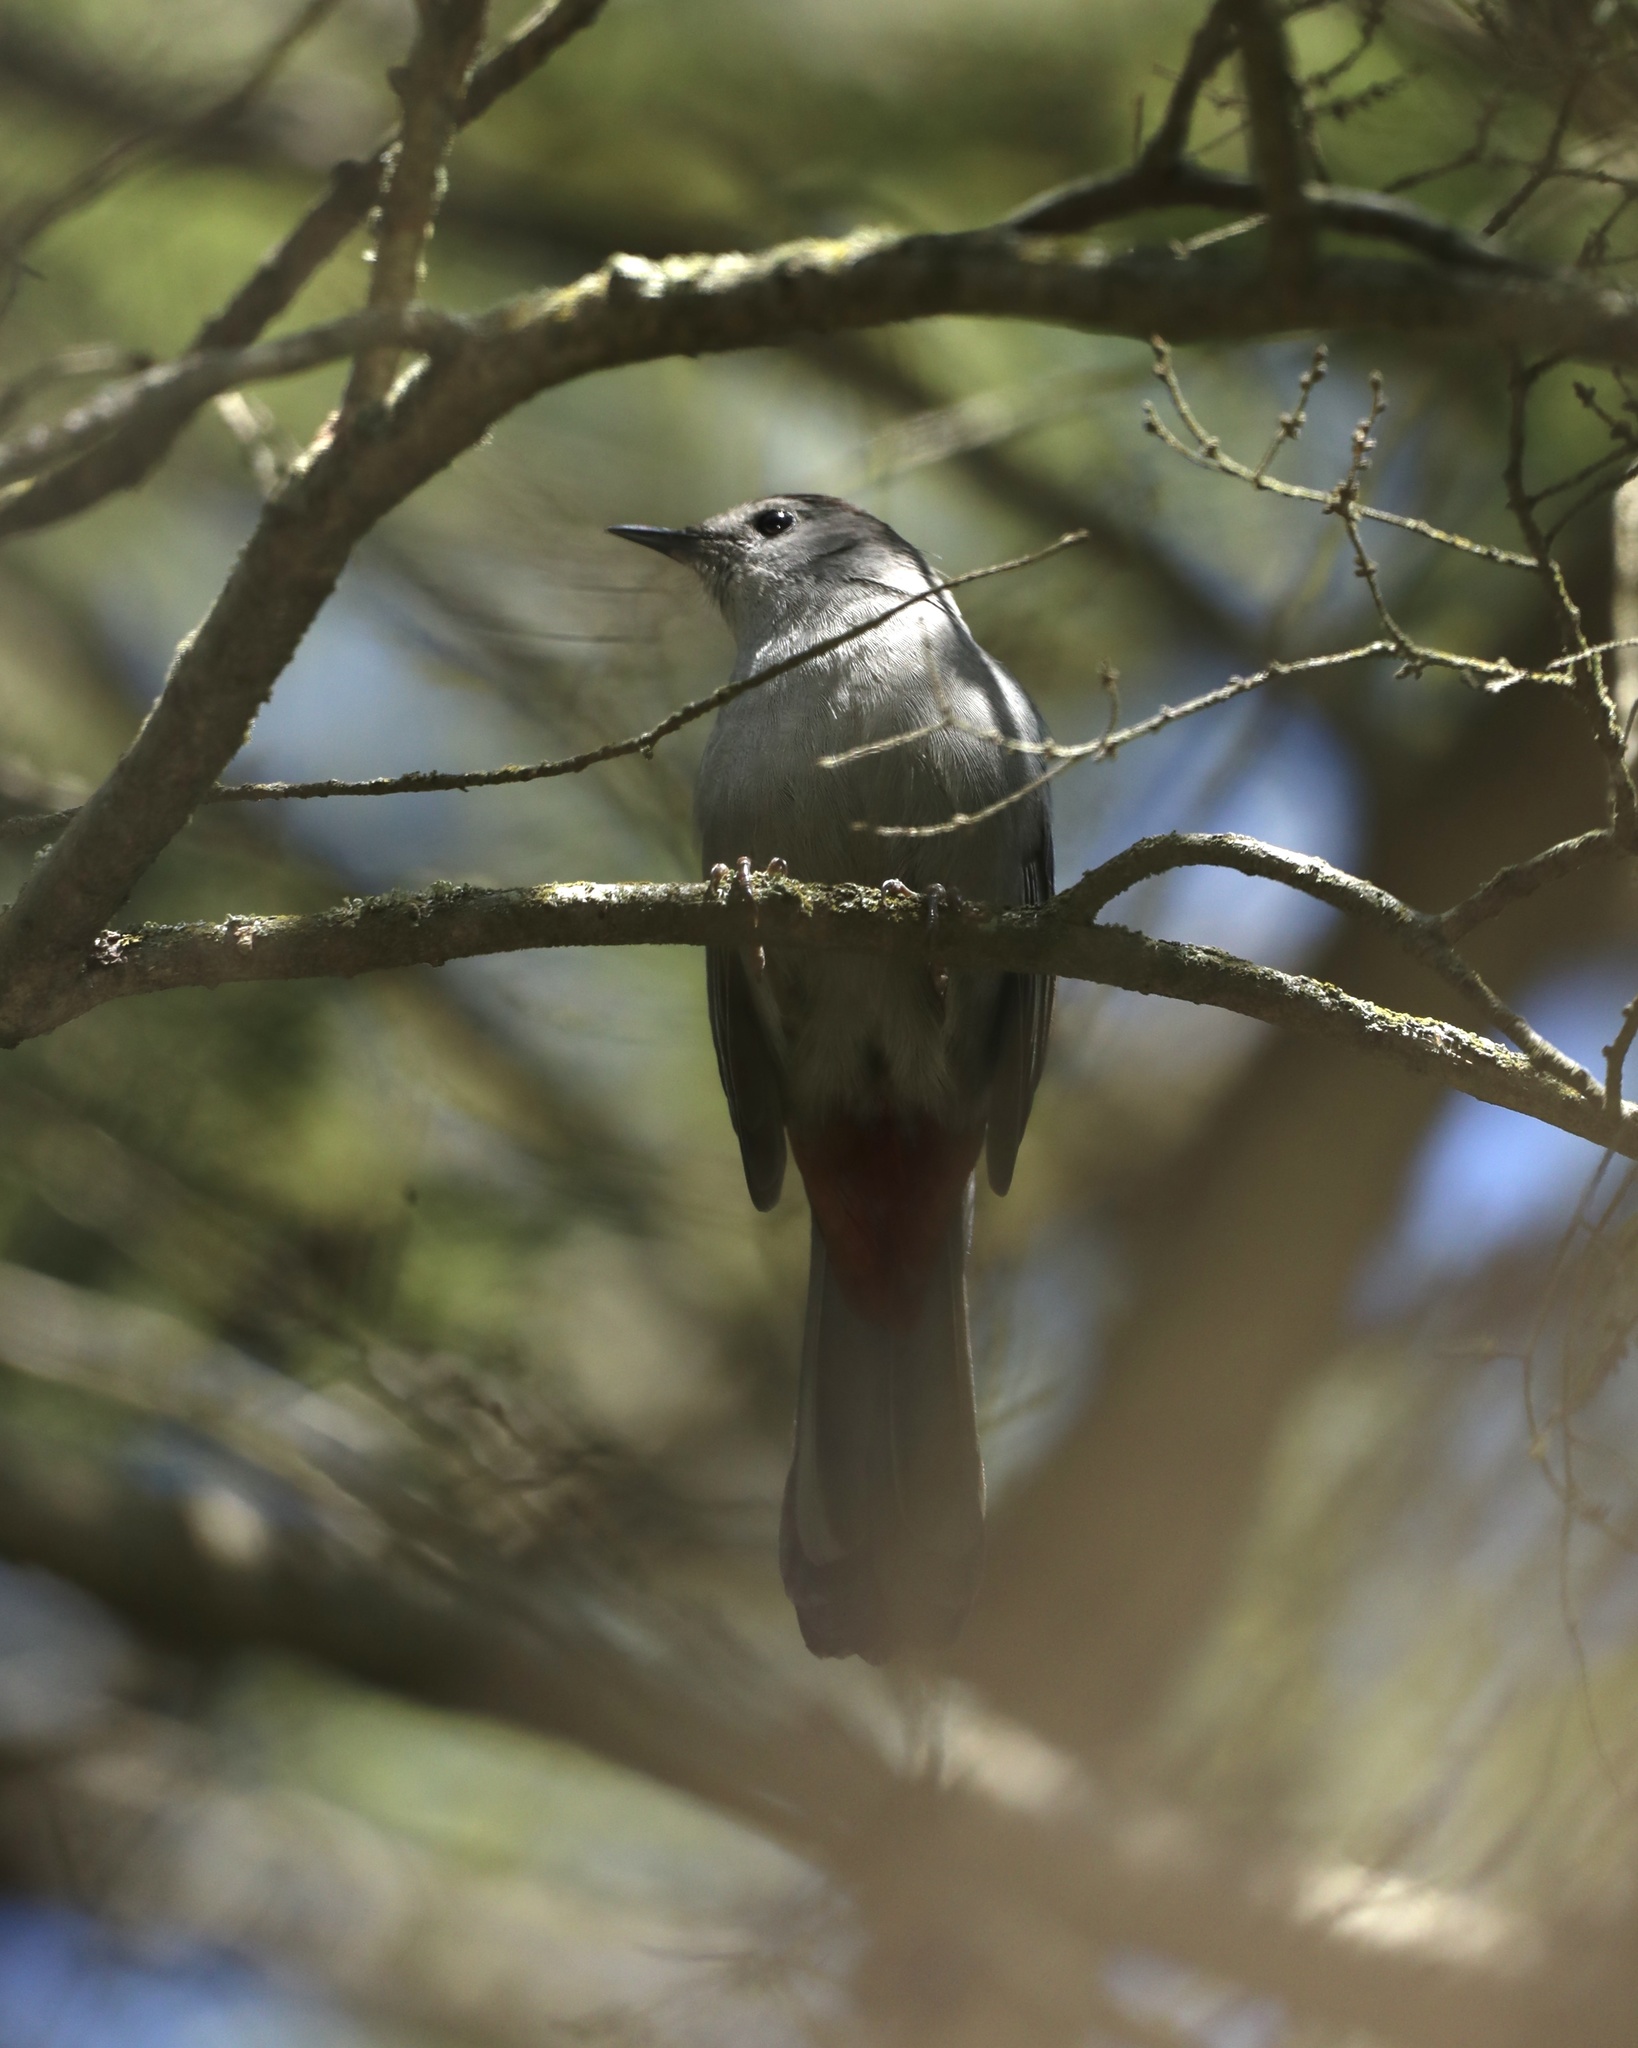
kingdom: Animalia
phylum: Chordata
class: Aves
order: Passeriformes
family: Mimidae
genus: Dumetella
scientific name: Dumetella carolinensis
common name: Gray catbird
